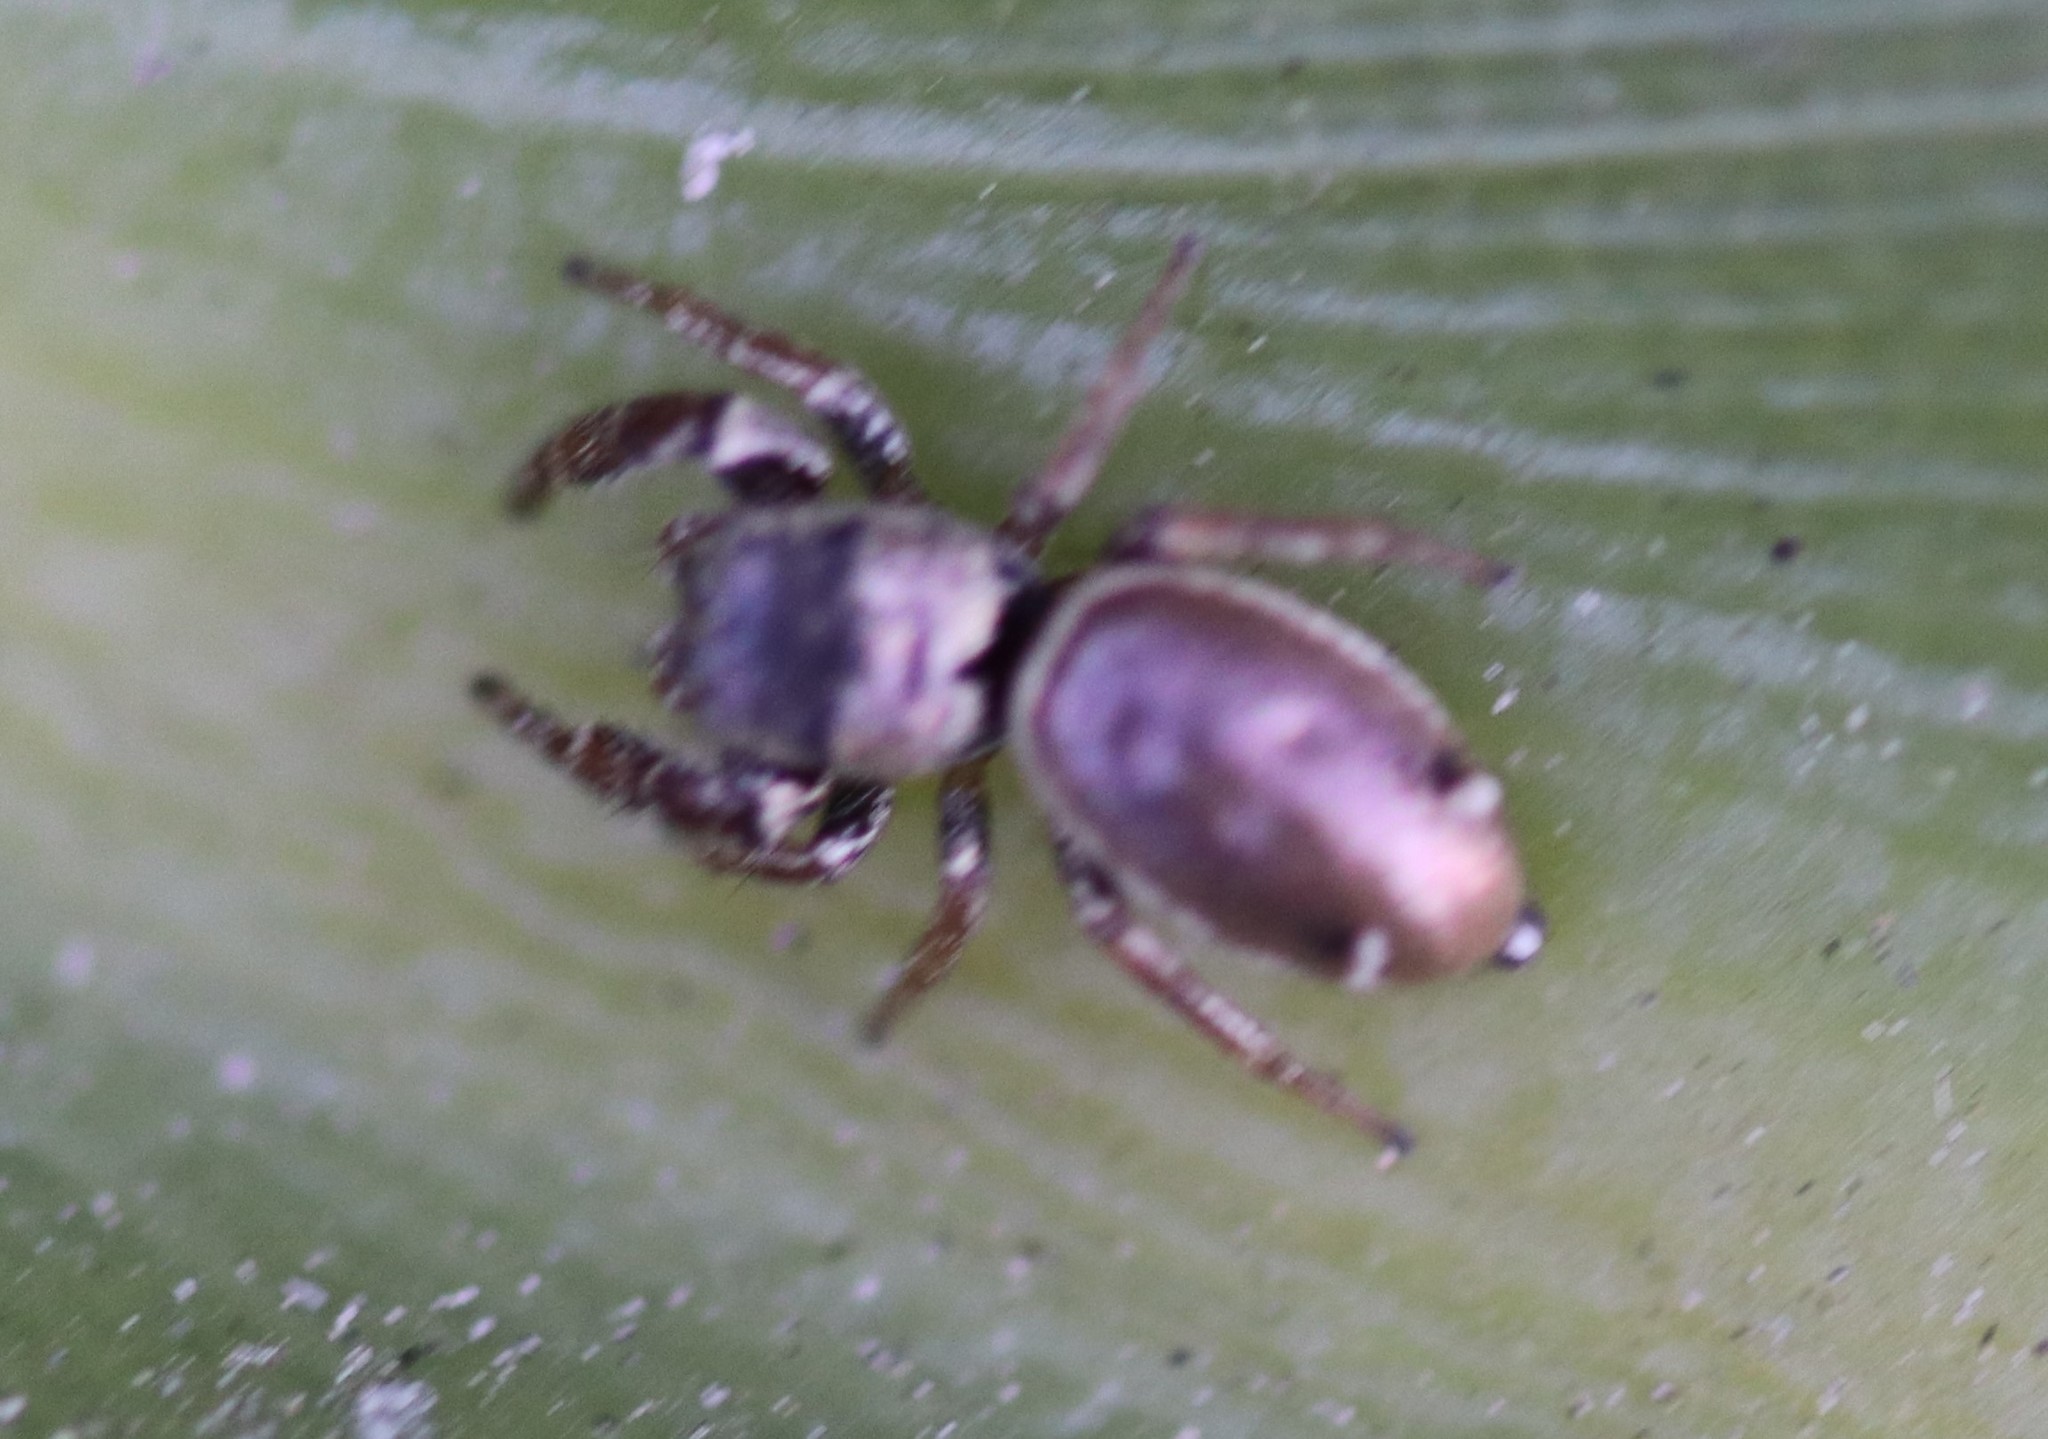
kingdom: Animalia
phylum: Arthropoda
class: Arachnida
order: Araneae
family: Salticidae
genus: Sassacus
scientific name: Sassacus vitis
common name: Jumping spiders
